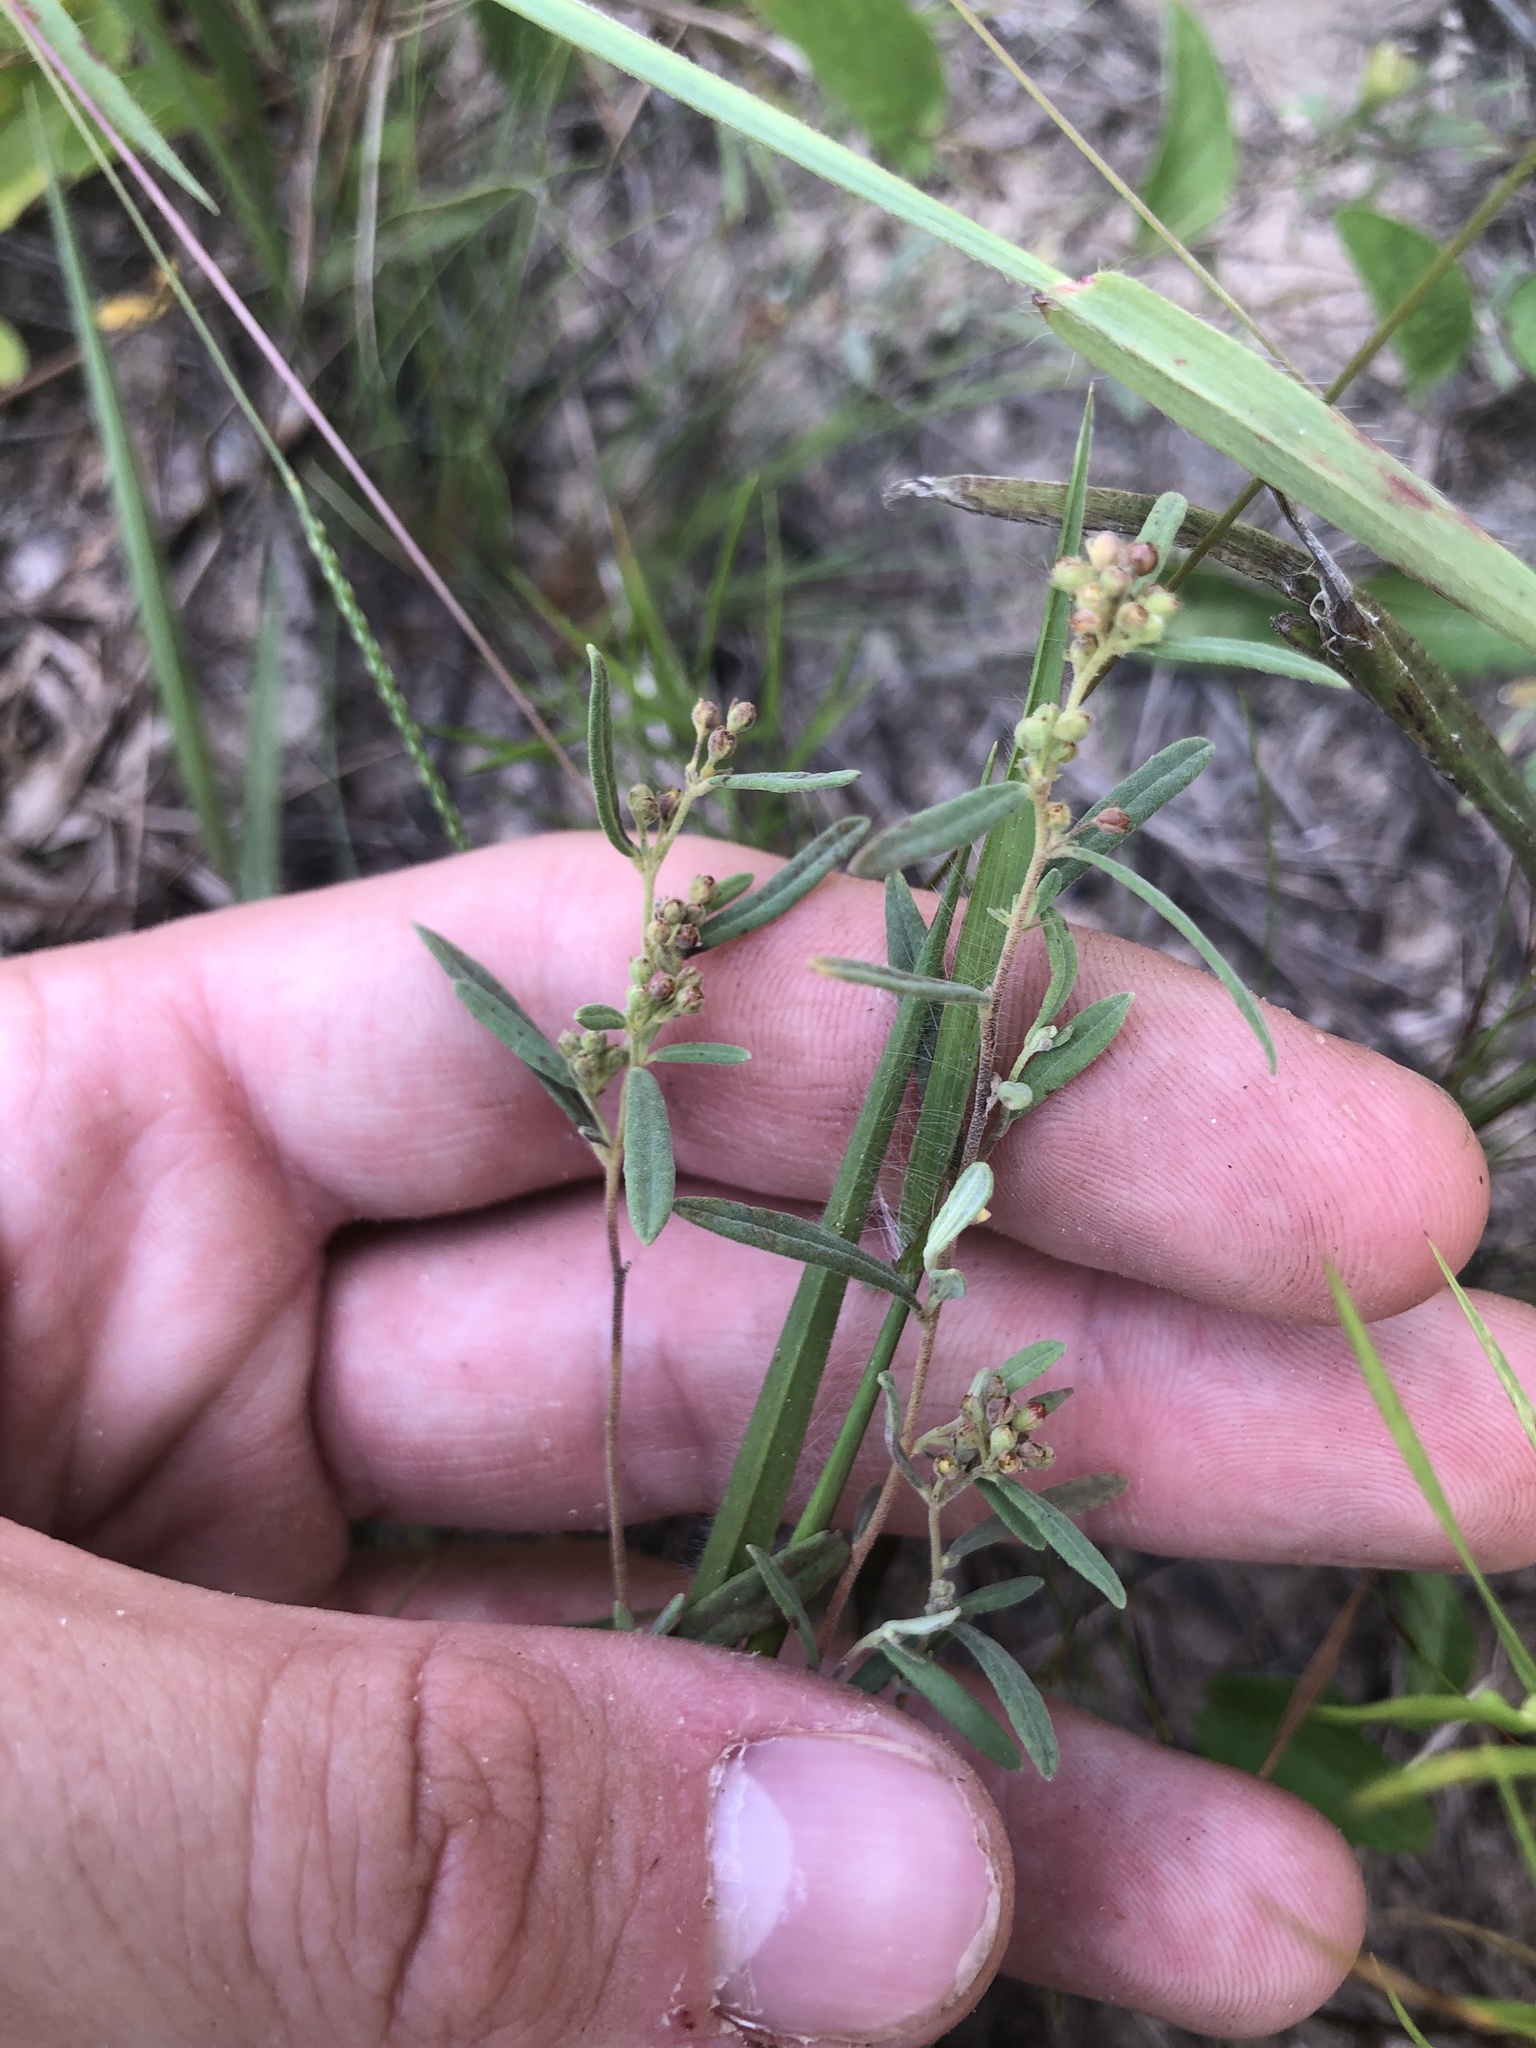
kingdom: Plantae
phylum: Tracheophyta
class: Magnoliopsida
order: Malvales
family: Cistaceae
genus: Crocanthemum
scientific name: Crocanthemum rosmarinifolium
